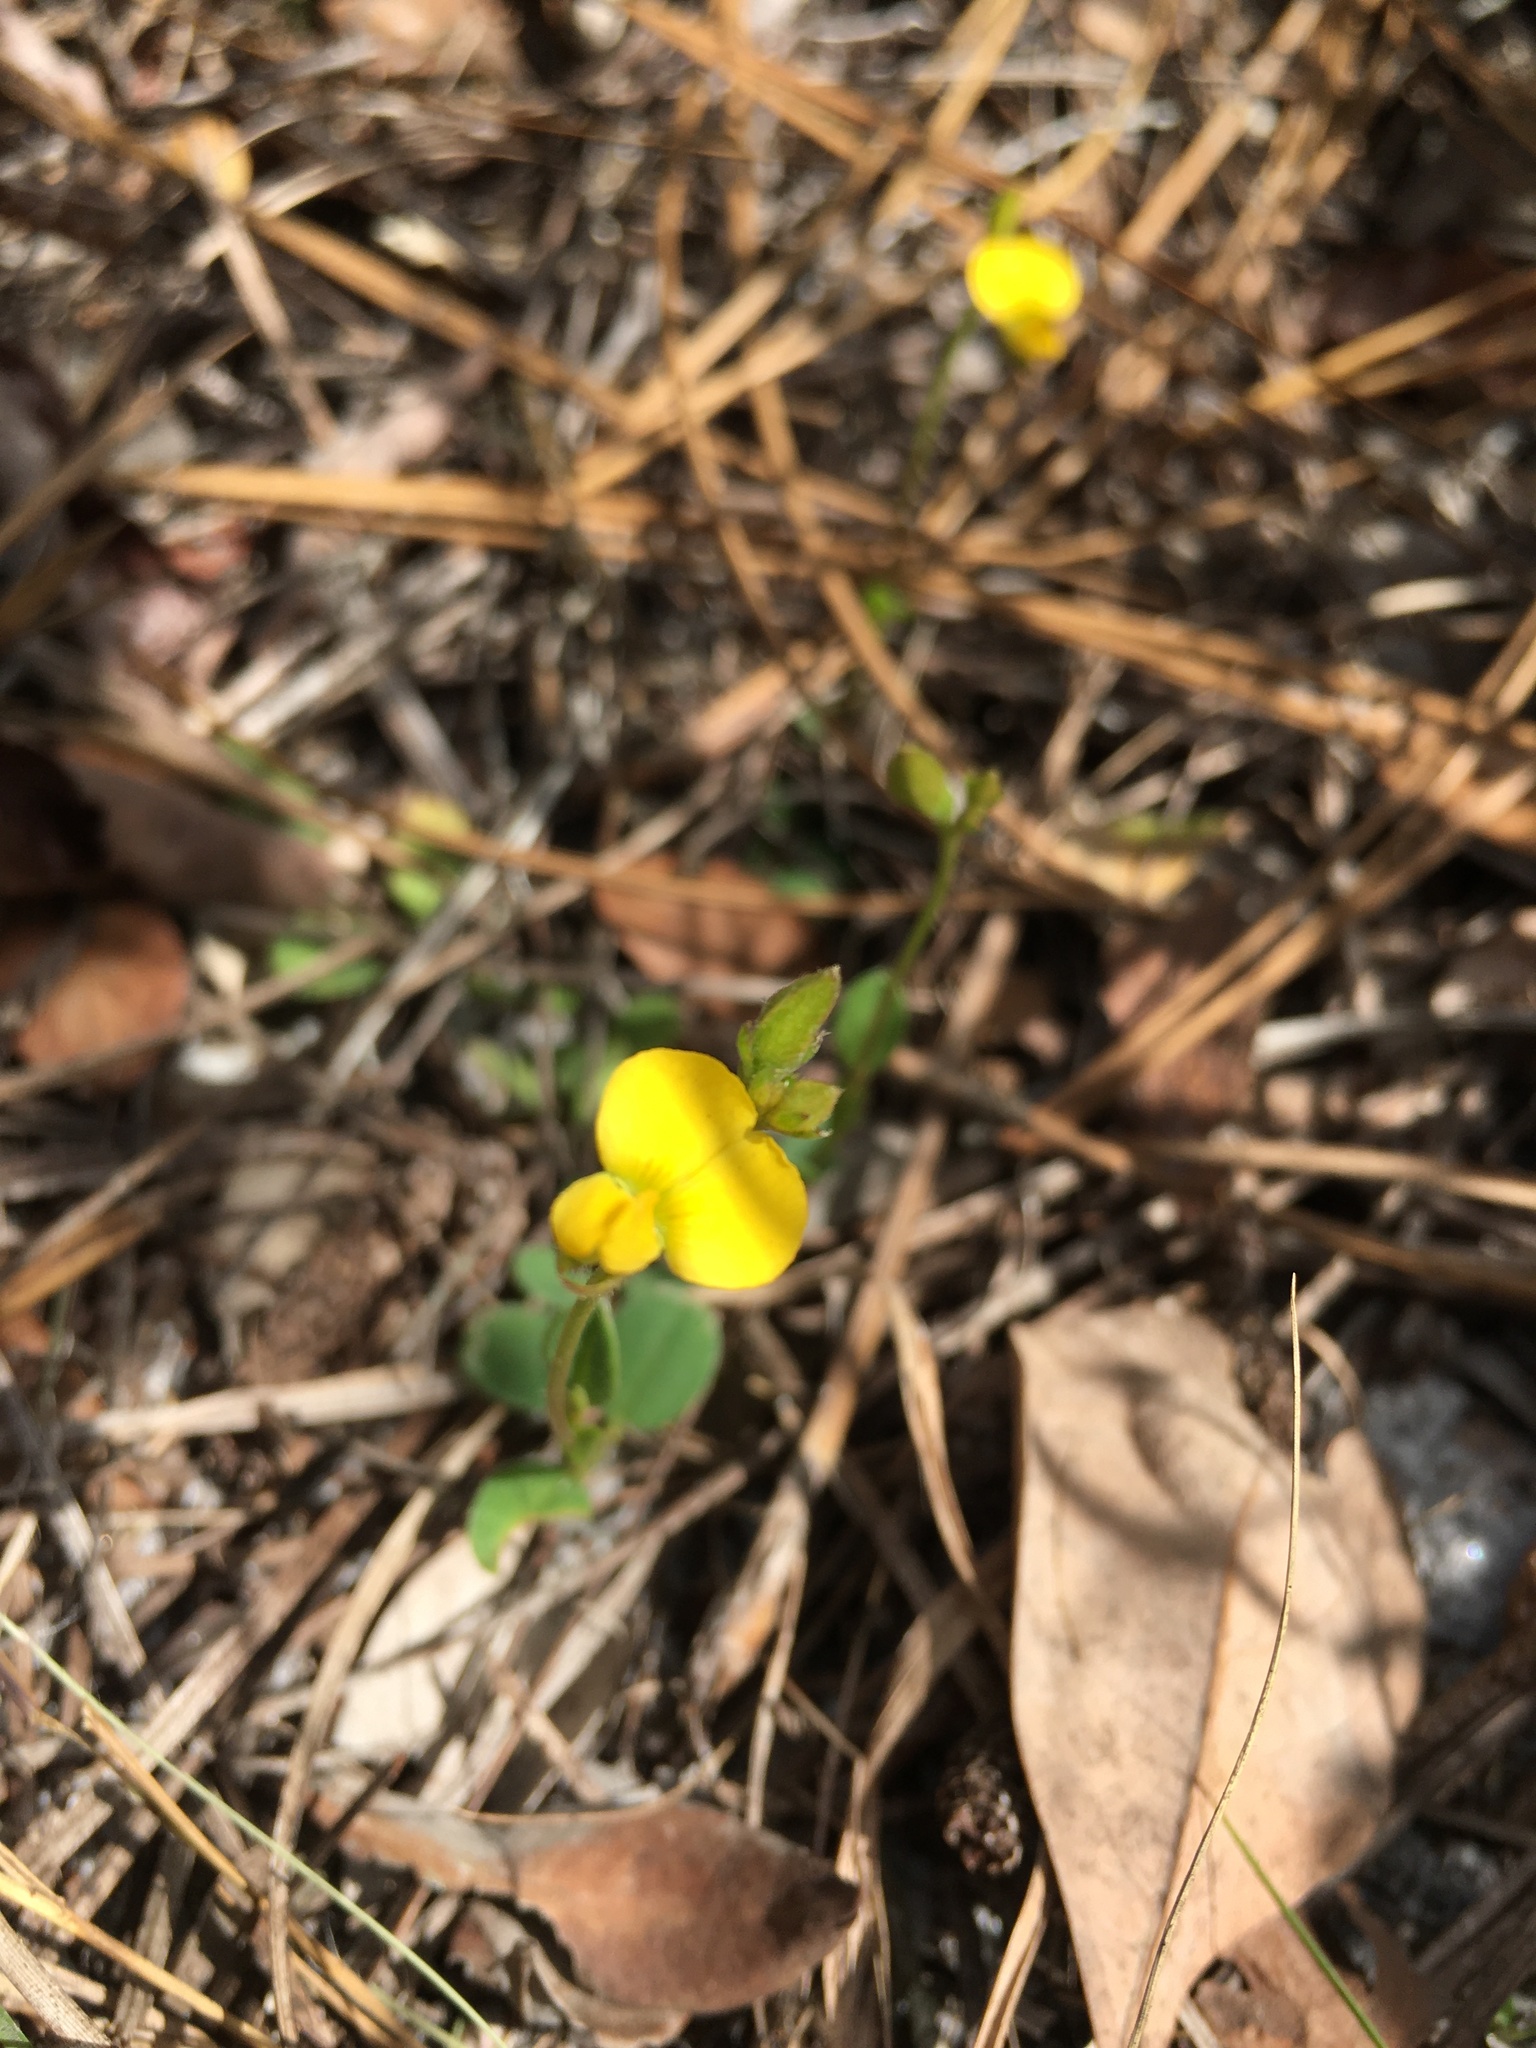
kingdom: Plantae
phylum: Tracheophyta
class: Magnoliopsida
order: Fabales
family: Fabaceae
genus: Crotalaria
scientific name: Crotalaria rotundifolia
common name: Prostrate rattlebox
